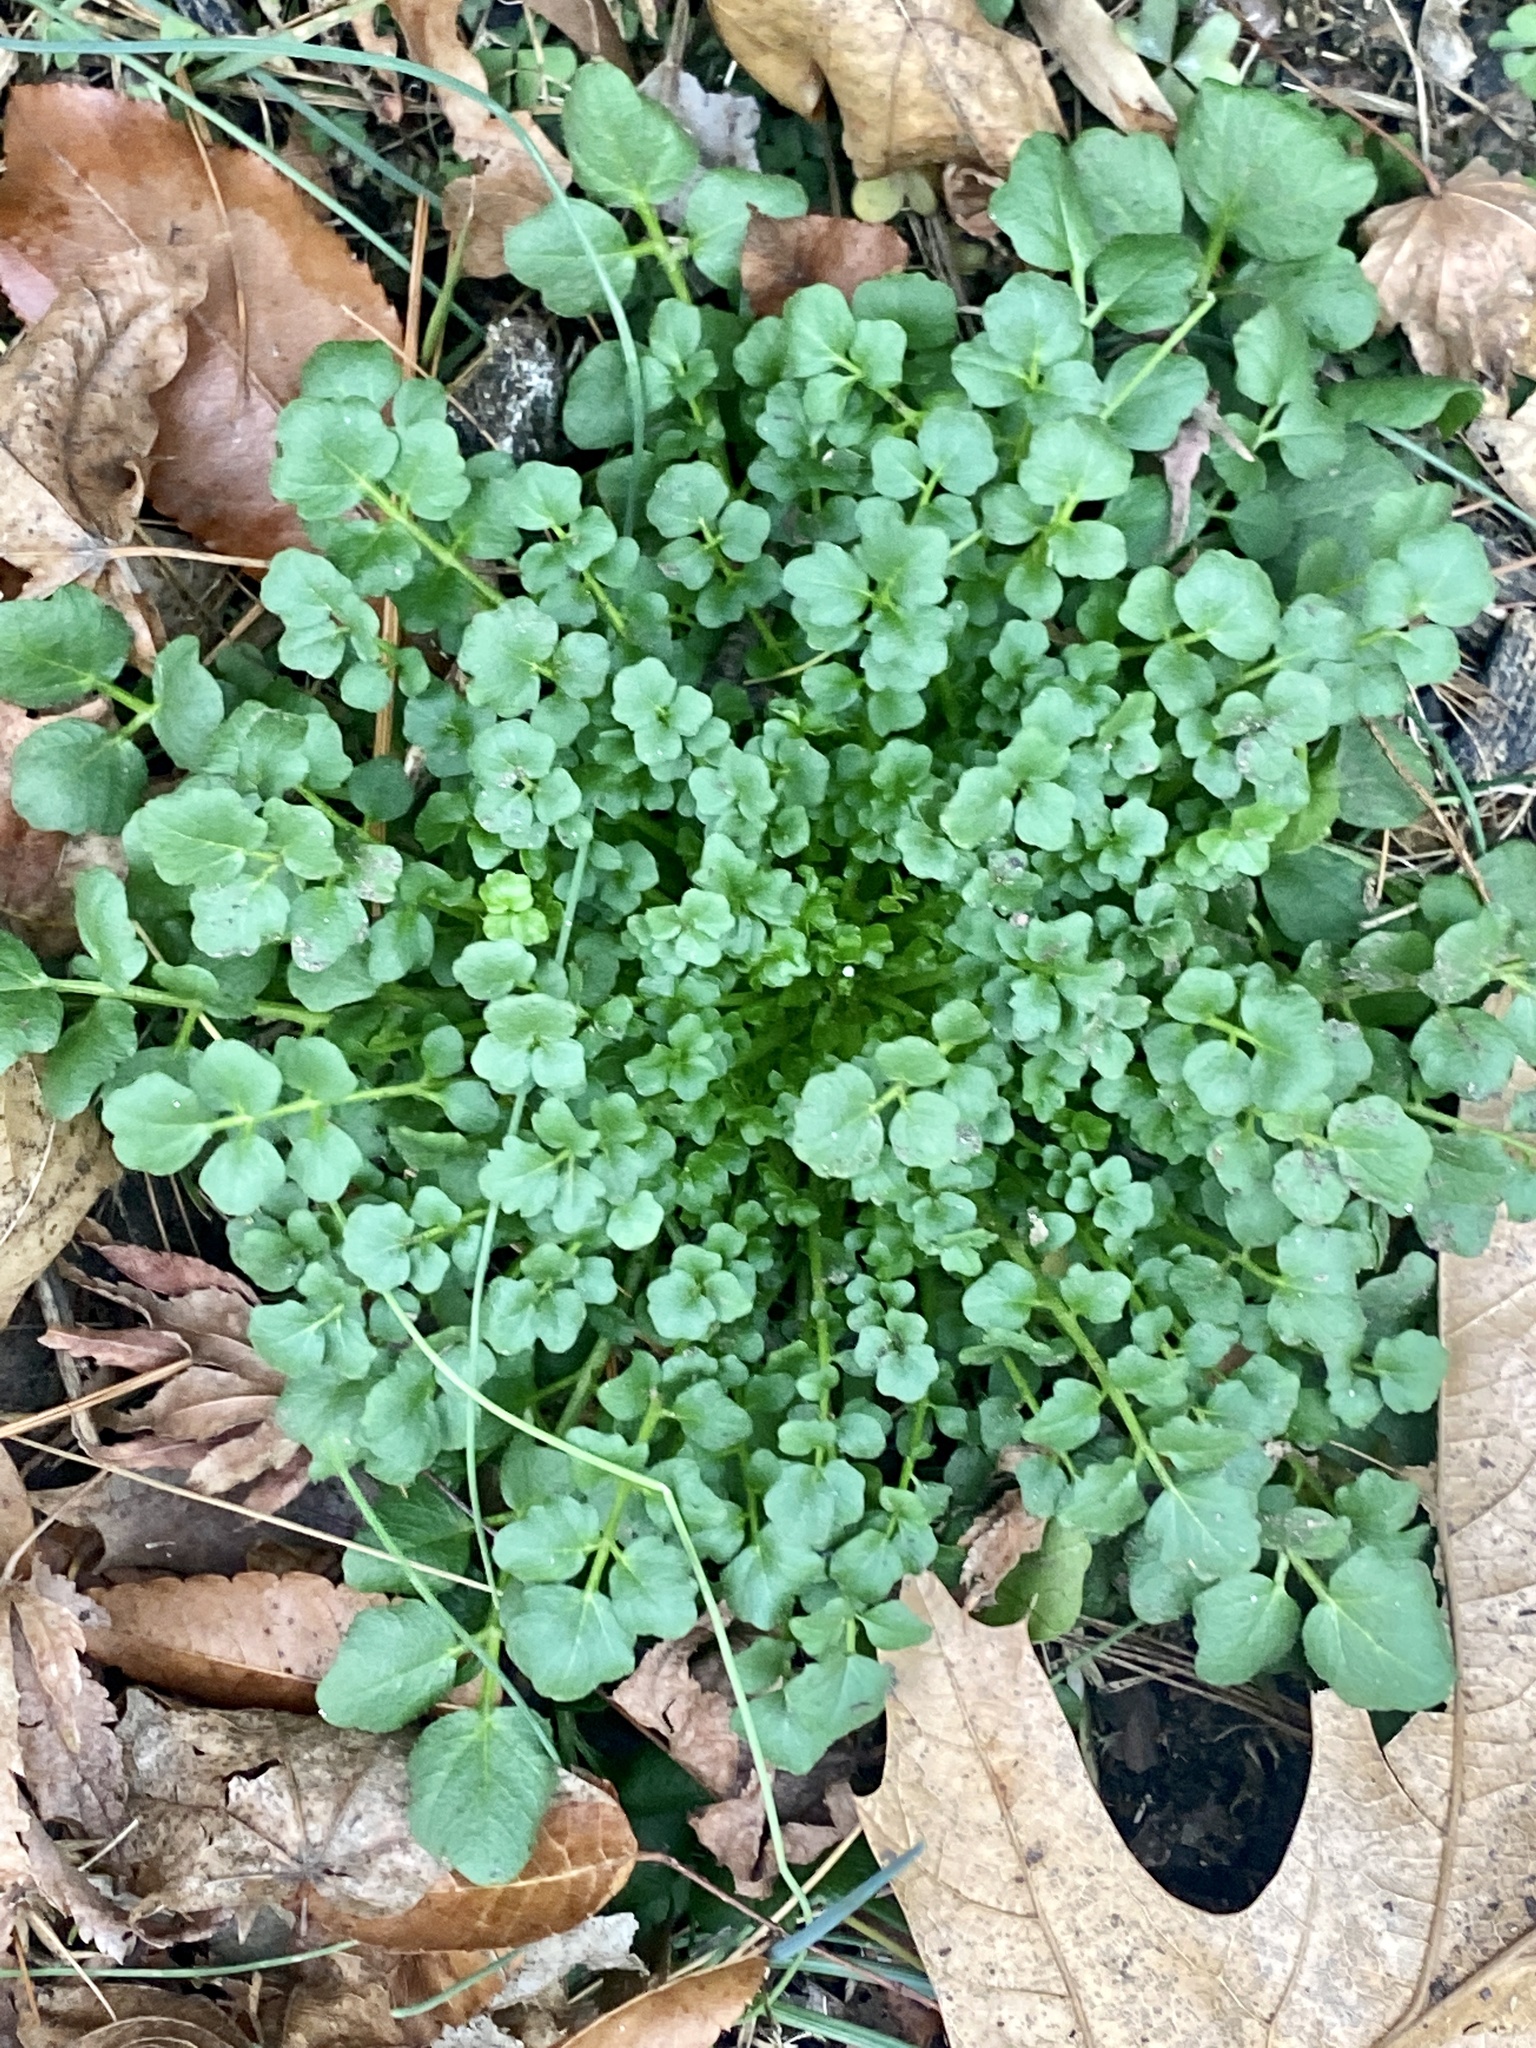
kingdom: Plantae
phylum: Tracheophyta
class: Magnoliopsida
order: Brassicales
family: Brassicaceae
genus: Cardamine
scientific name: Cardamine hirsuta
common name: Hairy bittercress
